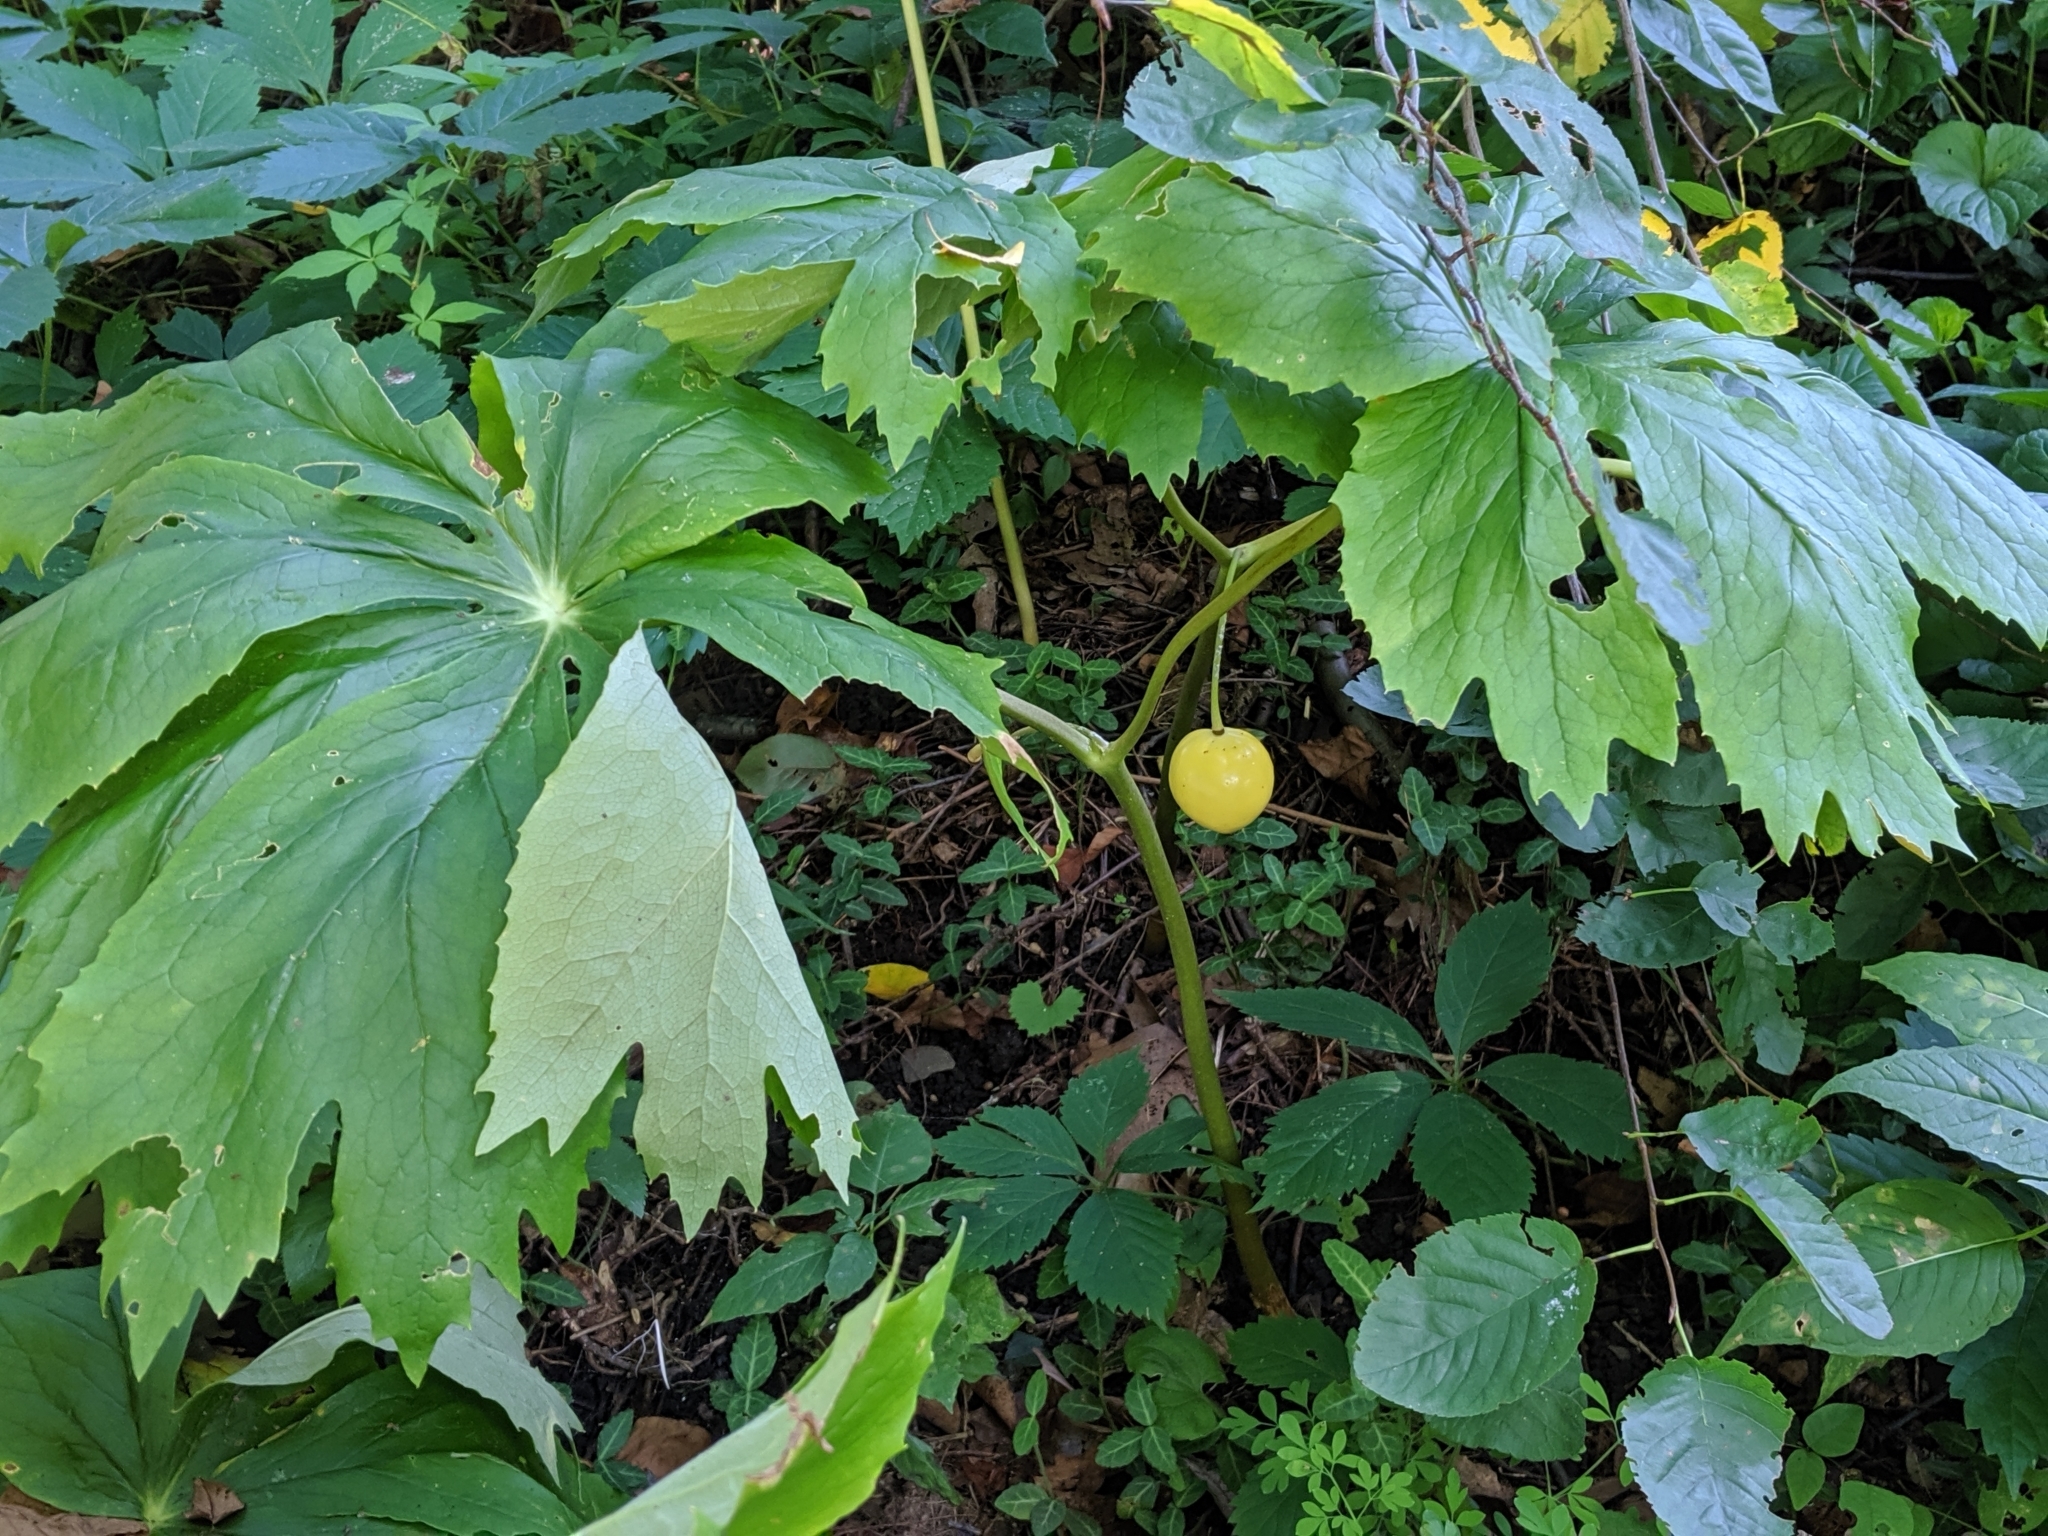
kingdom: Plantae
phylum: Tracheophyta
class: Magnoliopsida
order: Ranunculales
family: Berberidaceae
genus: Podophyllum
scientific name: Podophyllum peltatum
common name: Wild mandrake
